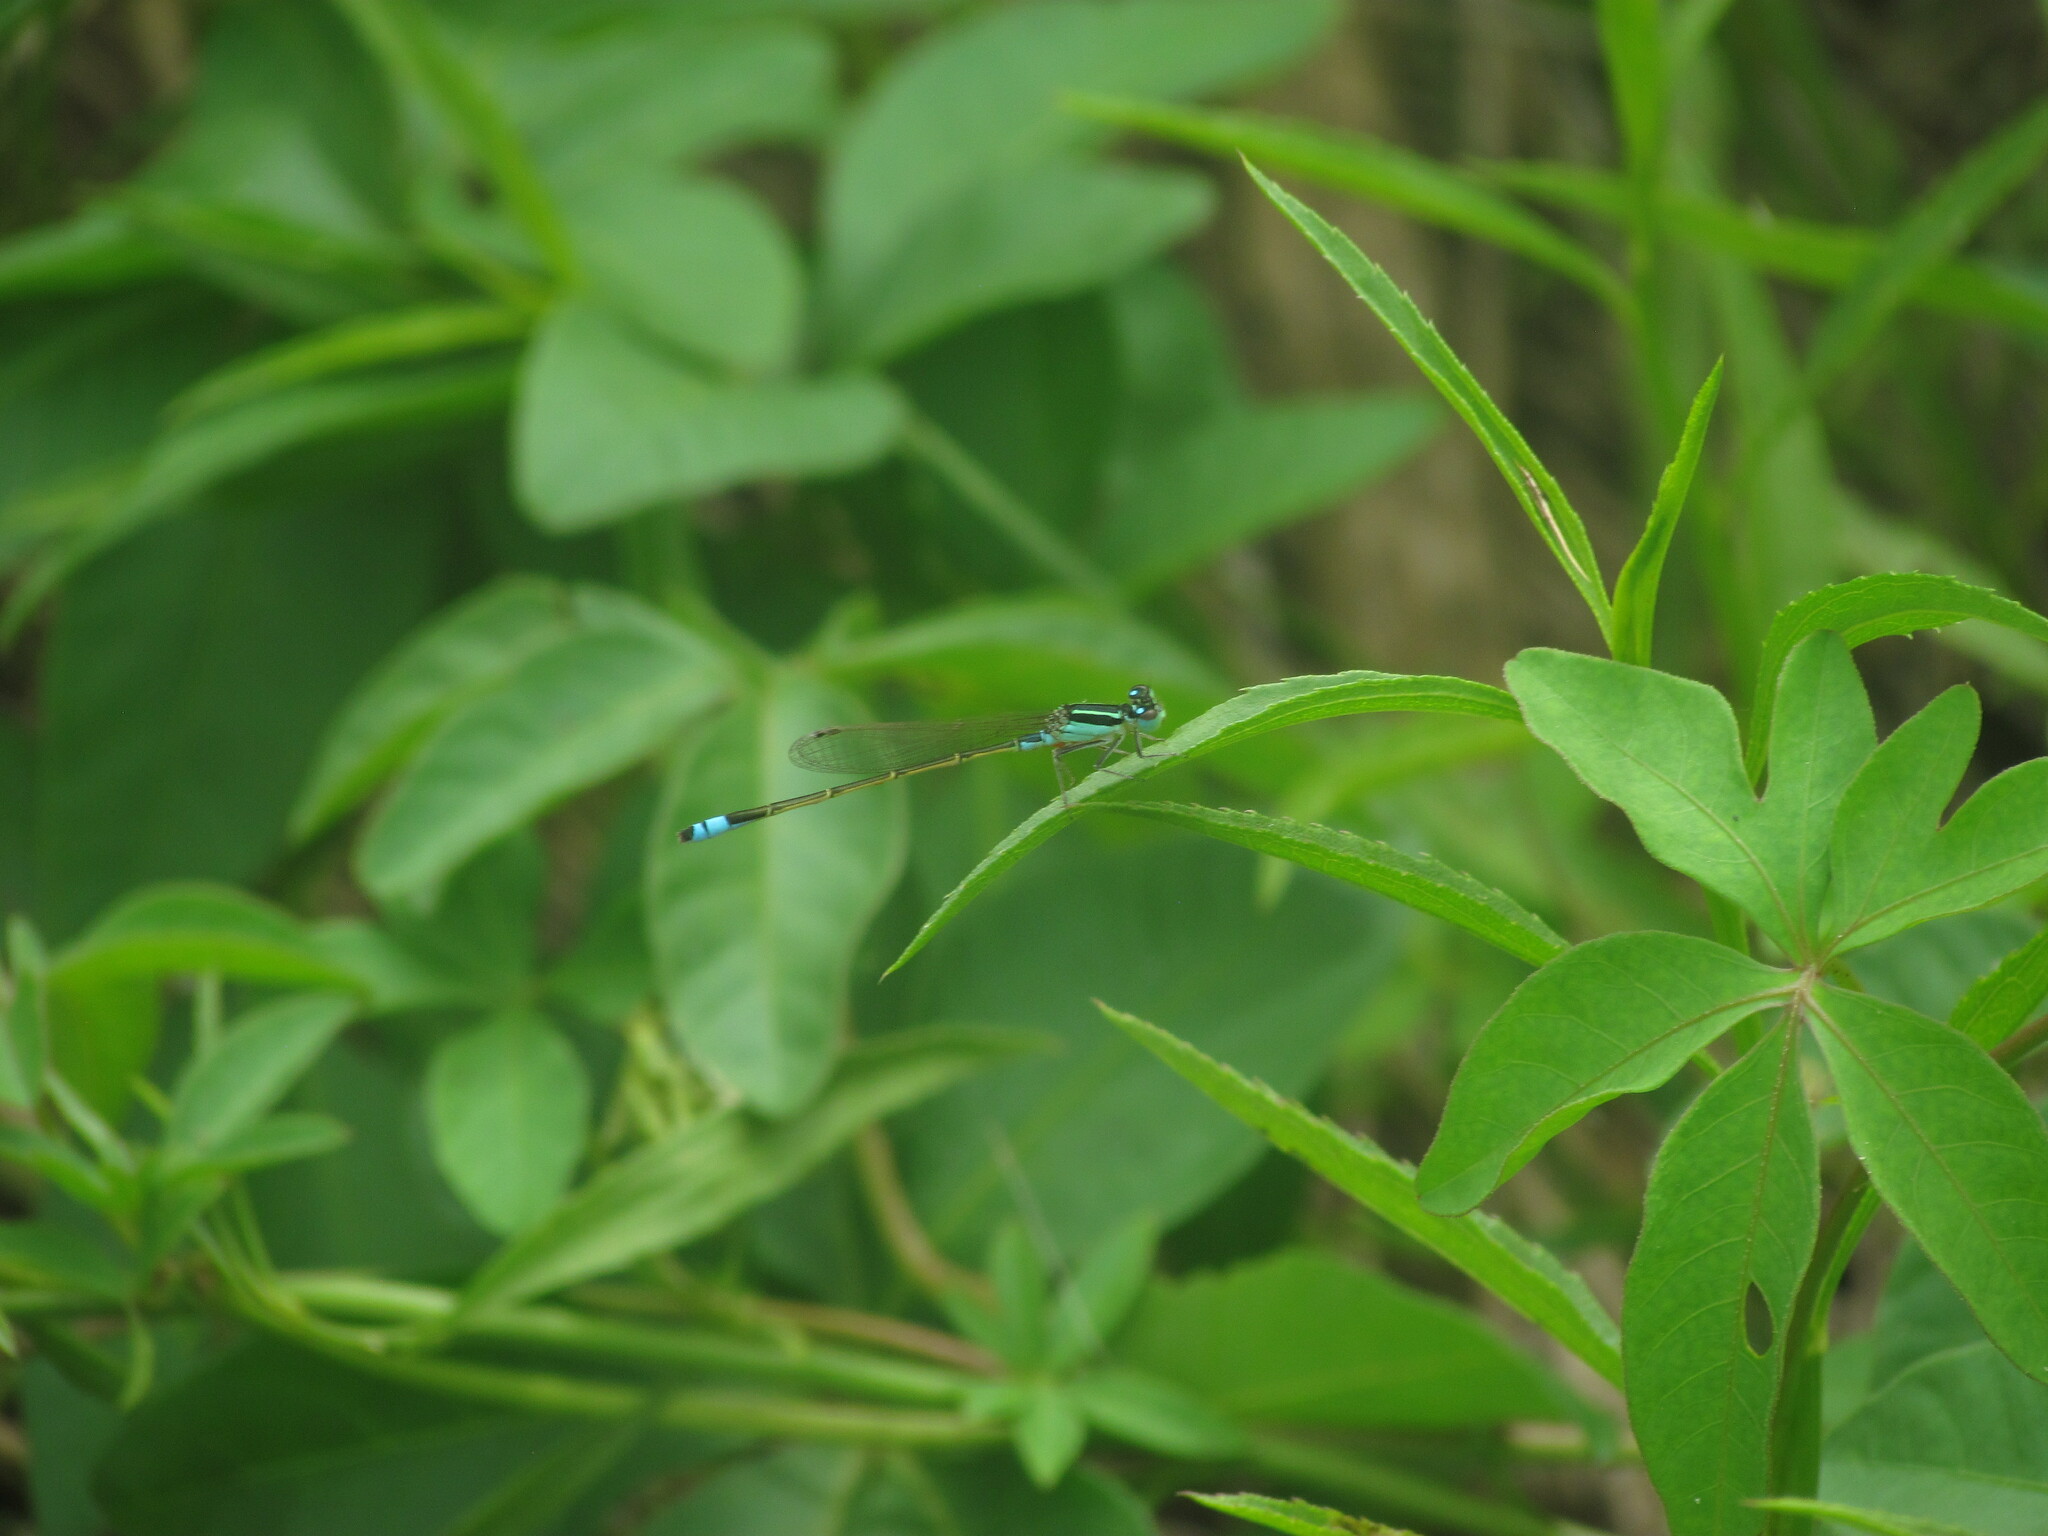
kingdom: Animalia
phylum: Arthropoda
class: Insecta
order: Odonata
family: Coenagrionidae
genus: Ischnura
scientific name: Ischnura fluviatilis
